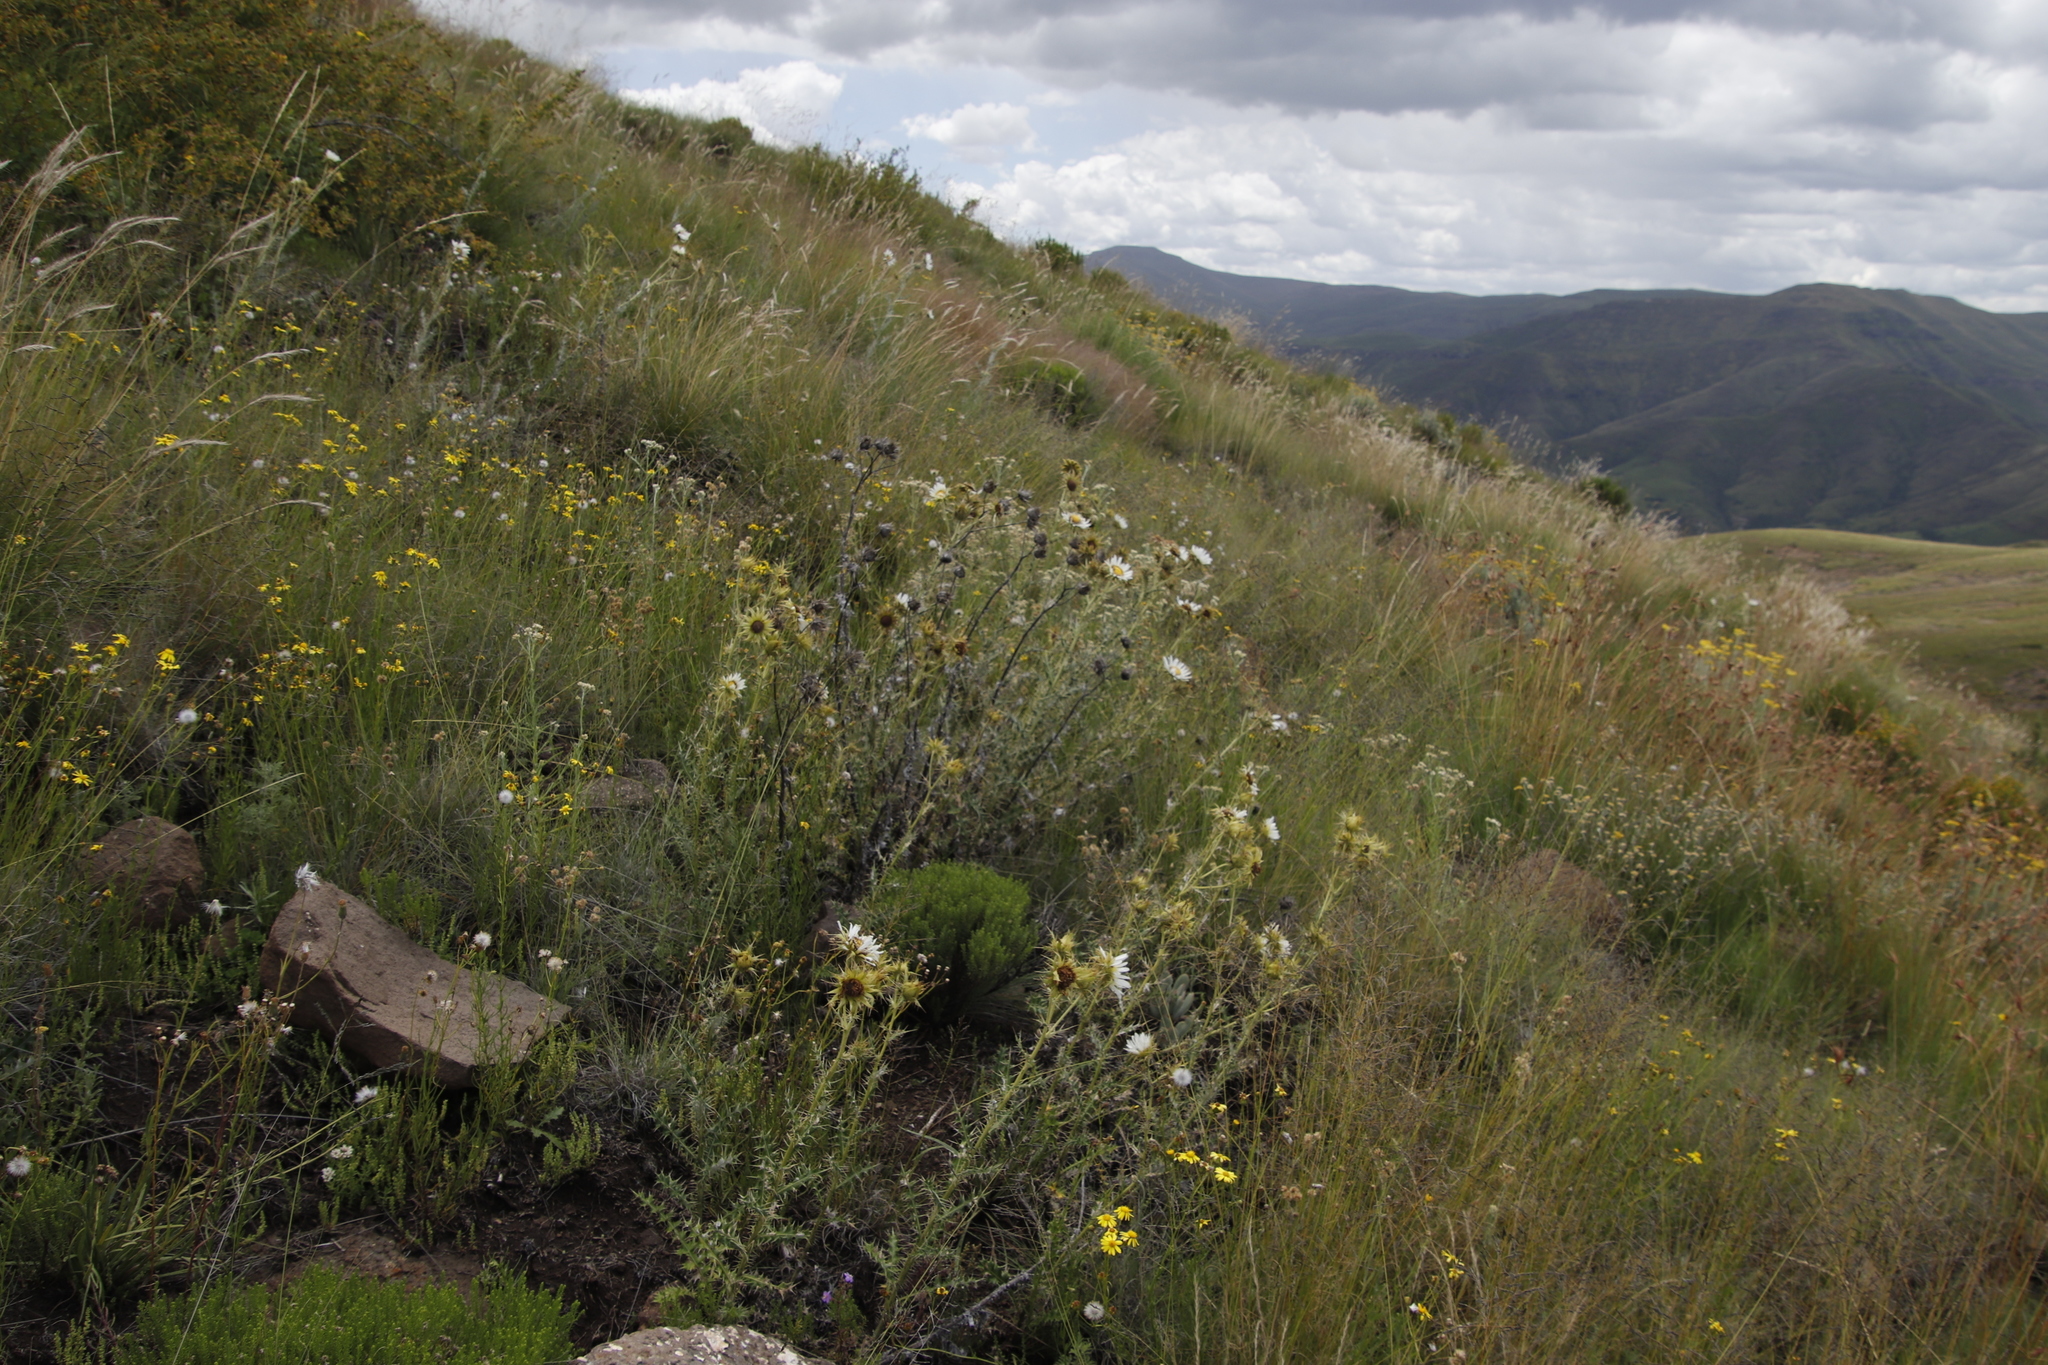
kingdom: Plantae
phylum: Tracheophyta
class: Magnoliopsida
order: Asterales
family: Asteraceae
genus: Berkheya
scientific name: Berkheya cirsiifolia
